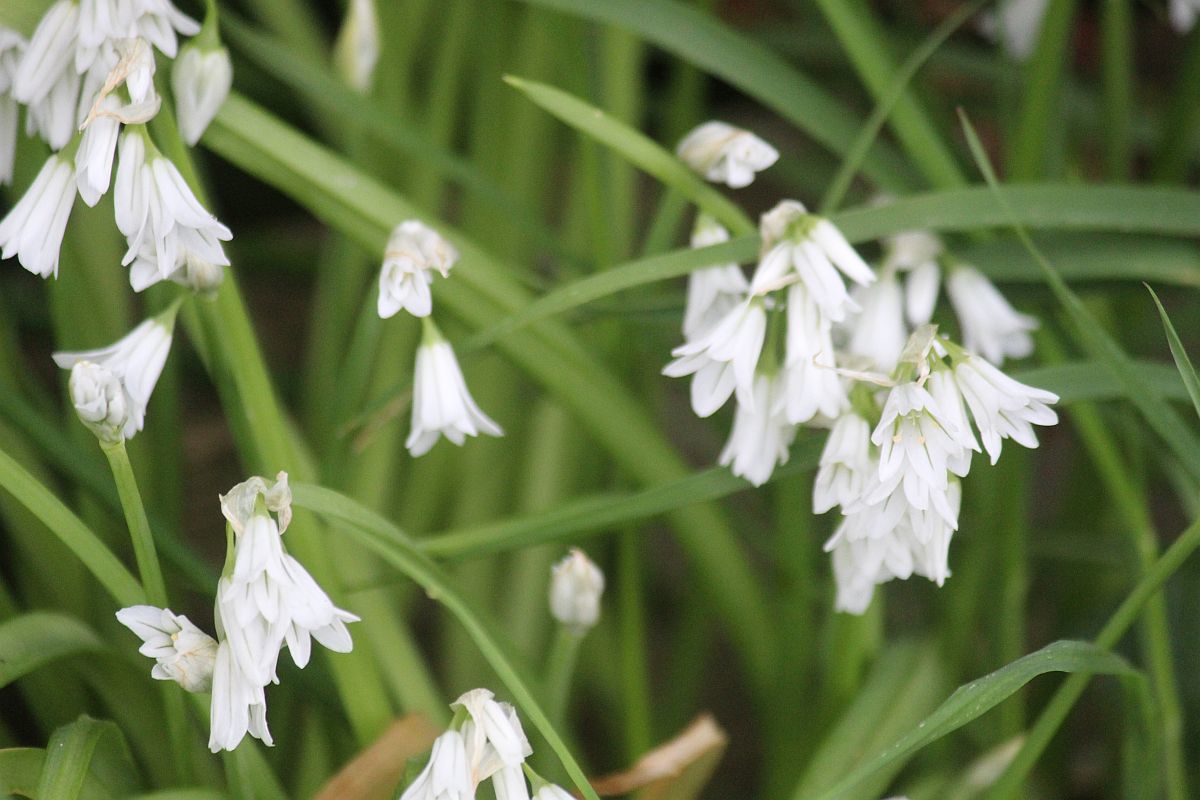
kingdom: Plantae
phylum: Tracheophyta
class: Liliopsida
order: Asparagales
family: Amaryllidaceae
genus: Allium
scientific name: Allium triquetrum
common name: Three-cornered garlic
